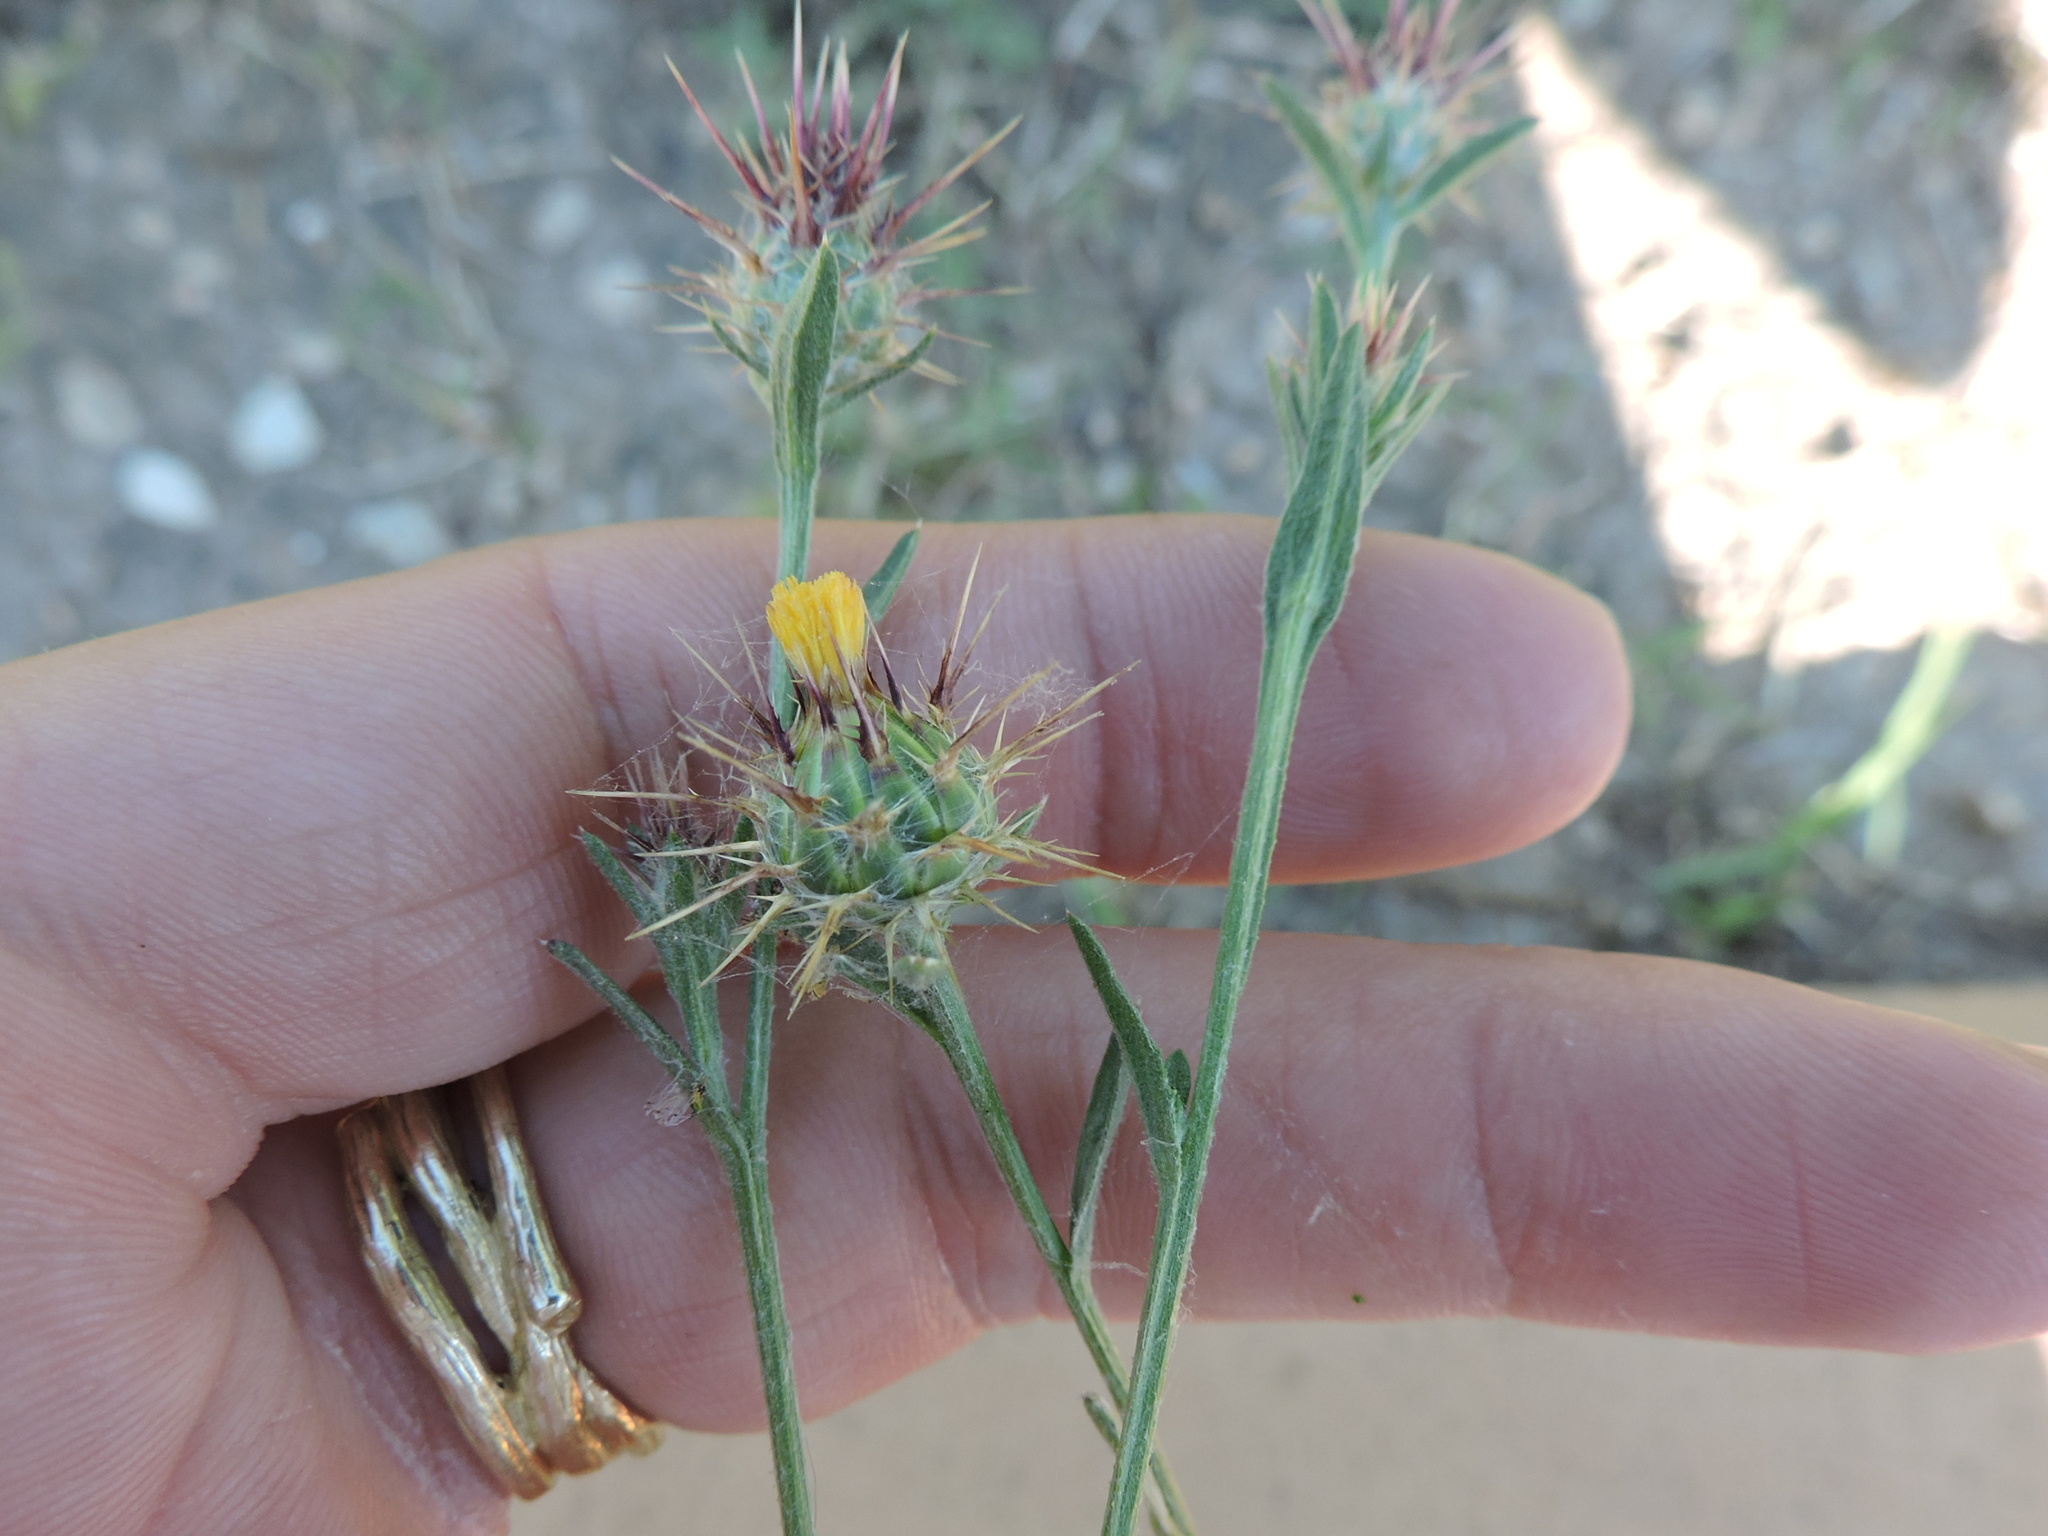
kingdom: Plantae
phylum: Tracheophyta
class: Magnoliopsida
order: Asterales
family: Asteraceae
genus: Centaurea
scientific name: Centaurea melitensis
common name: Maltese star-thistle
